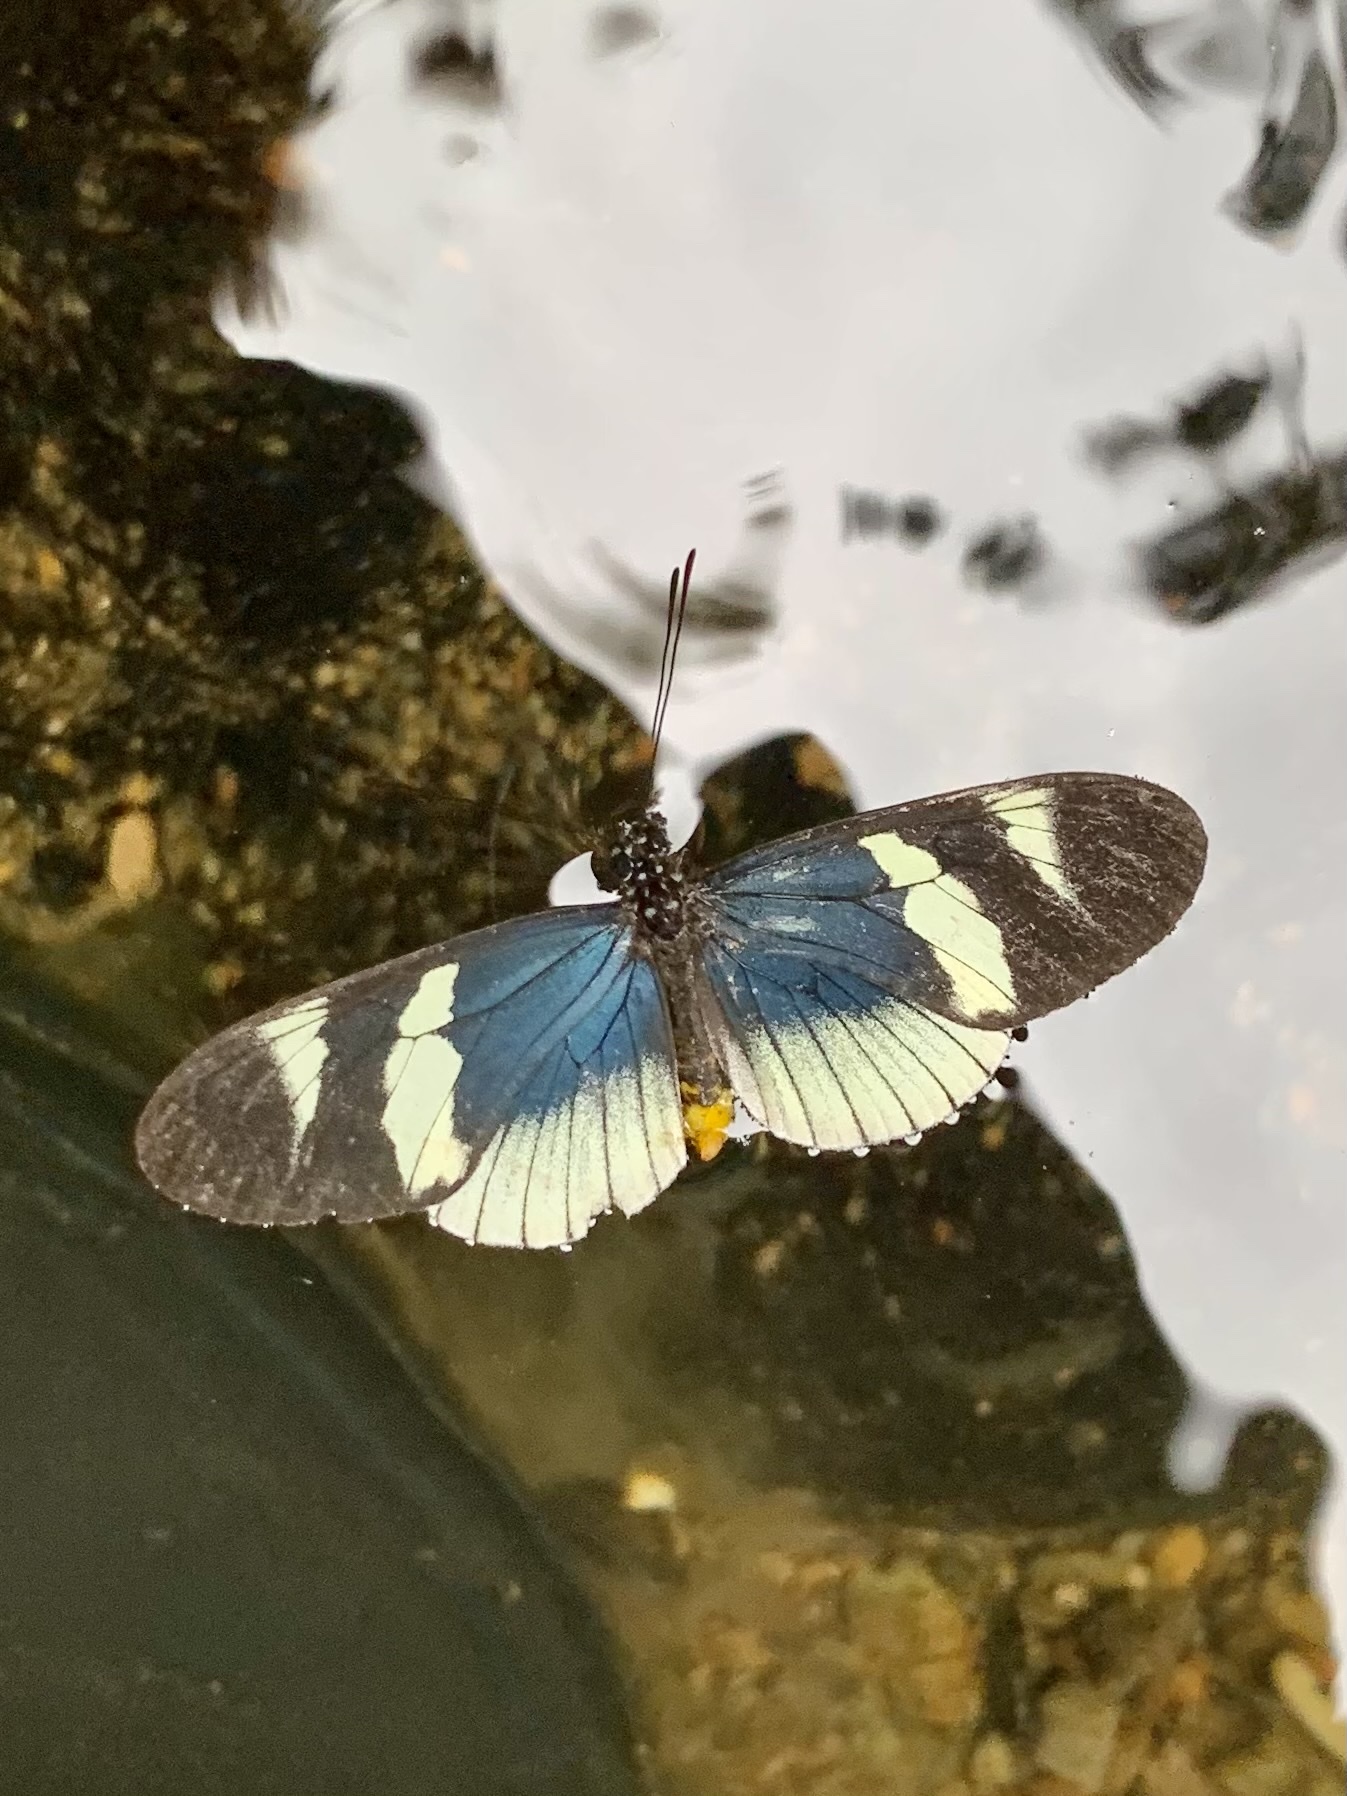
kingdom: Animalia
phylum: Arthropoda
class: Insecta
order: Lepidoptera
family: Nymphalidae
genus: Heliconius
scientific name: Heliconius eleuchia
